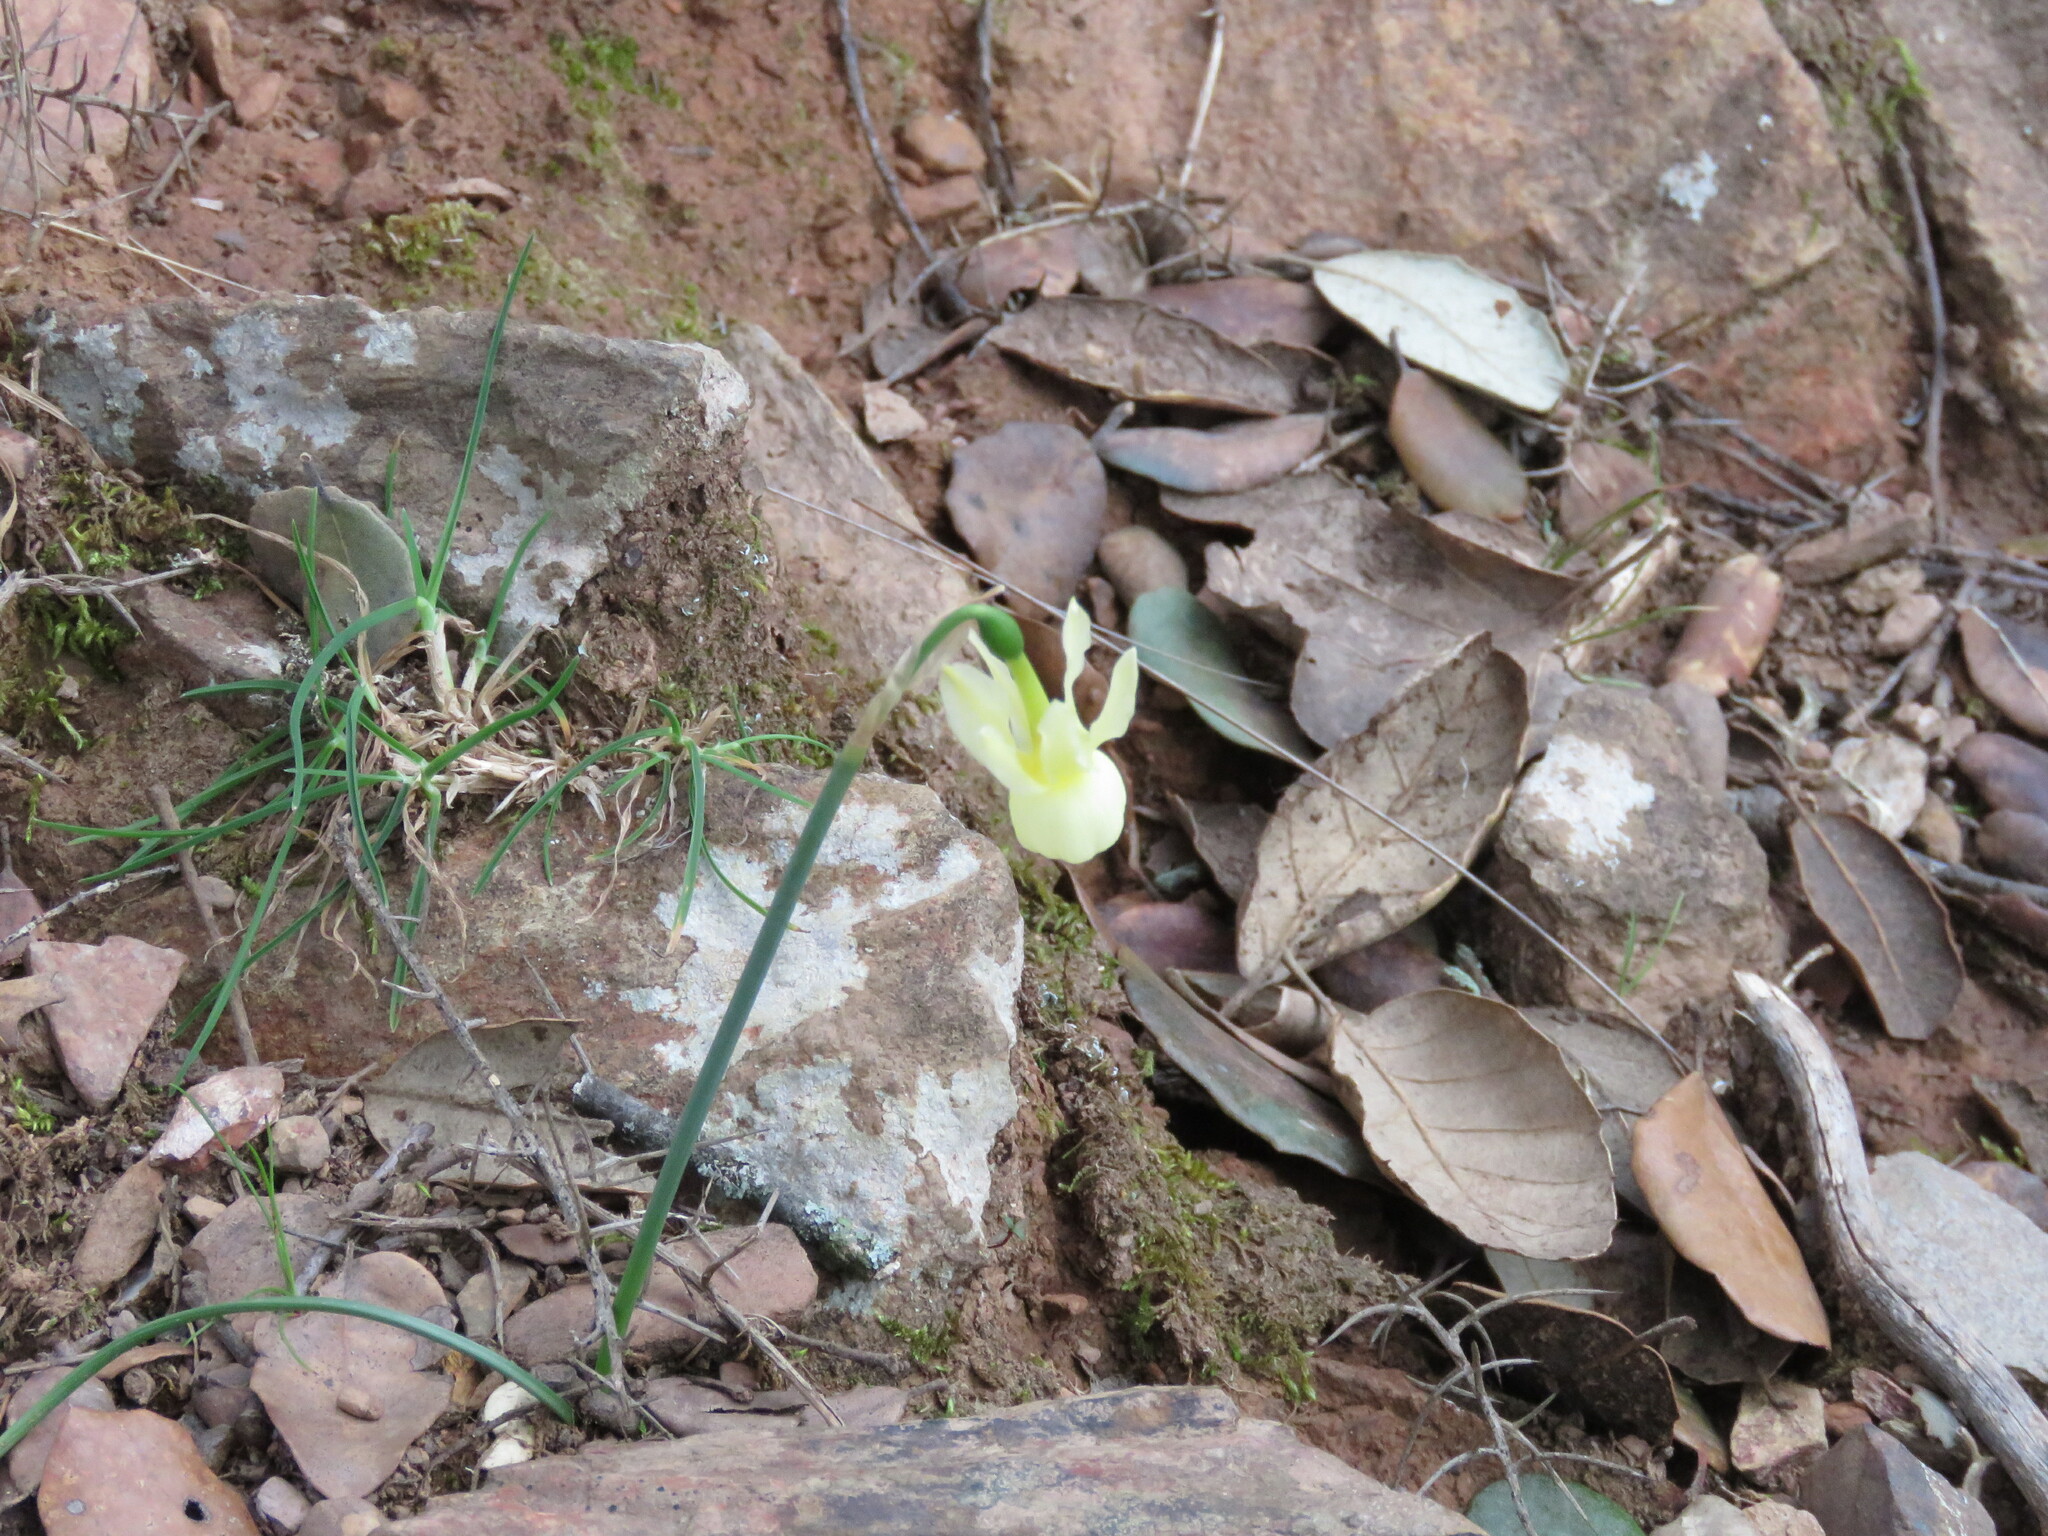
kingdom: Plantae
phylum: Tracheophyta
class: Liliopsida
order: Asparagales
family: Amaryllidaceae
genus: Narcissus
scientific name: Narcissus triandrus
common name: Angel's-tears
